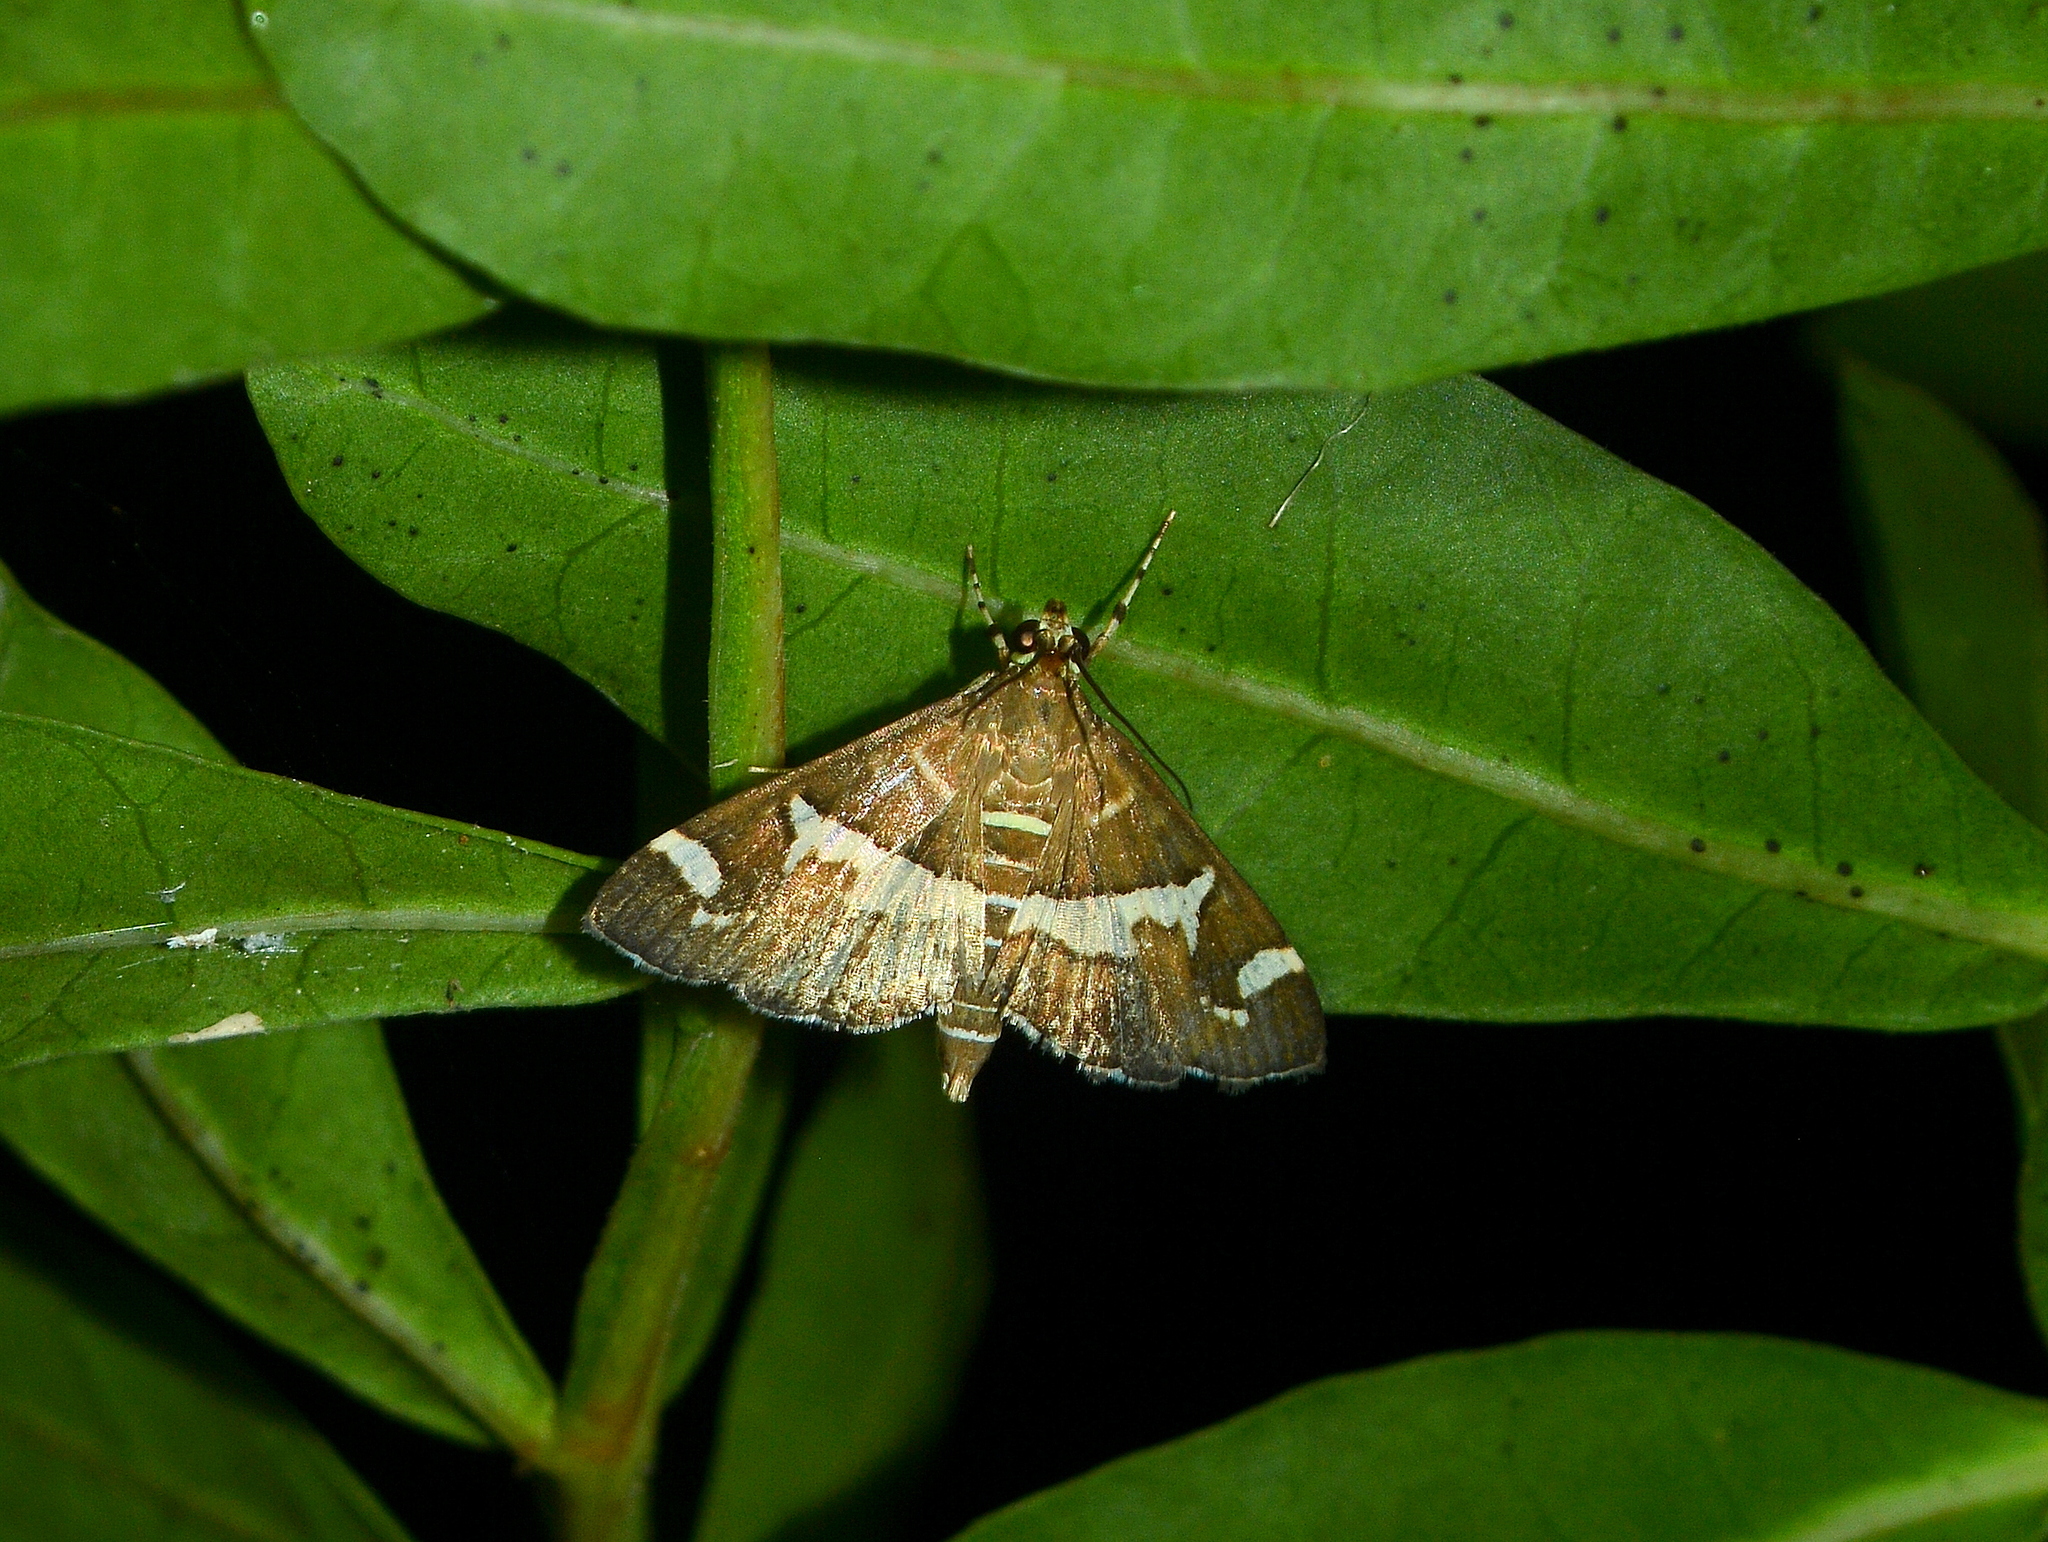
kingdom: Animalia
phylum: Arthropoda
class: Insecta
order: Lepidoptera
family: Crambidae
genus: Spoladea
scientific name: Spoladea recurvalis
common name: Beet webworm moth
